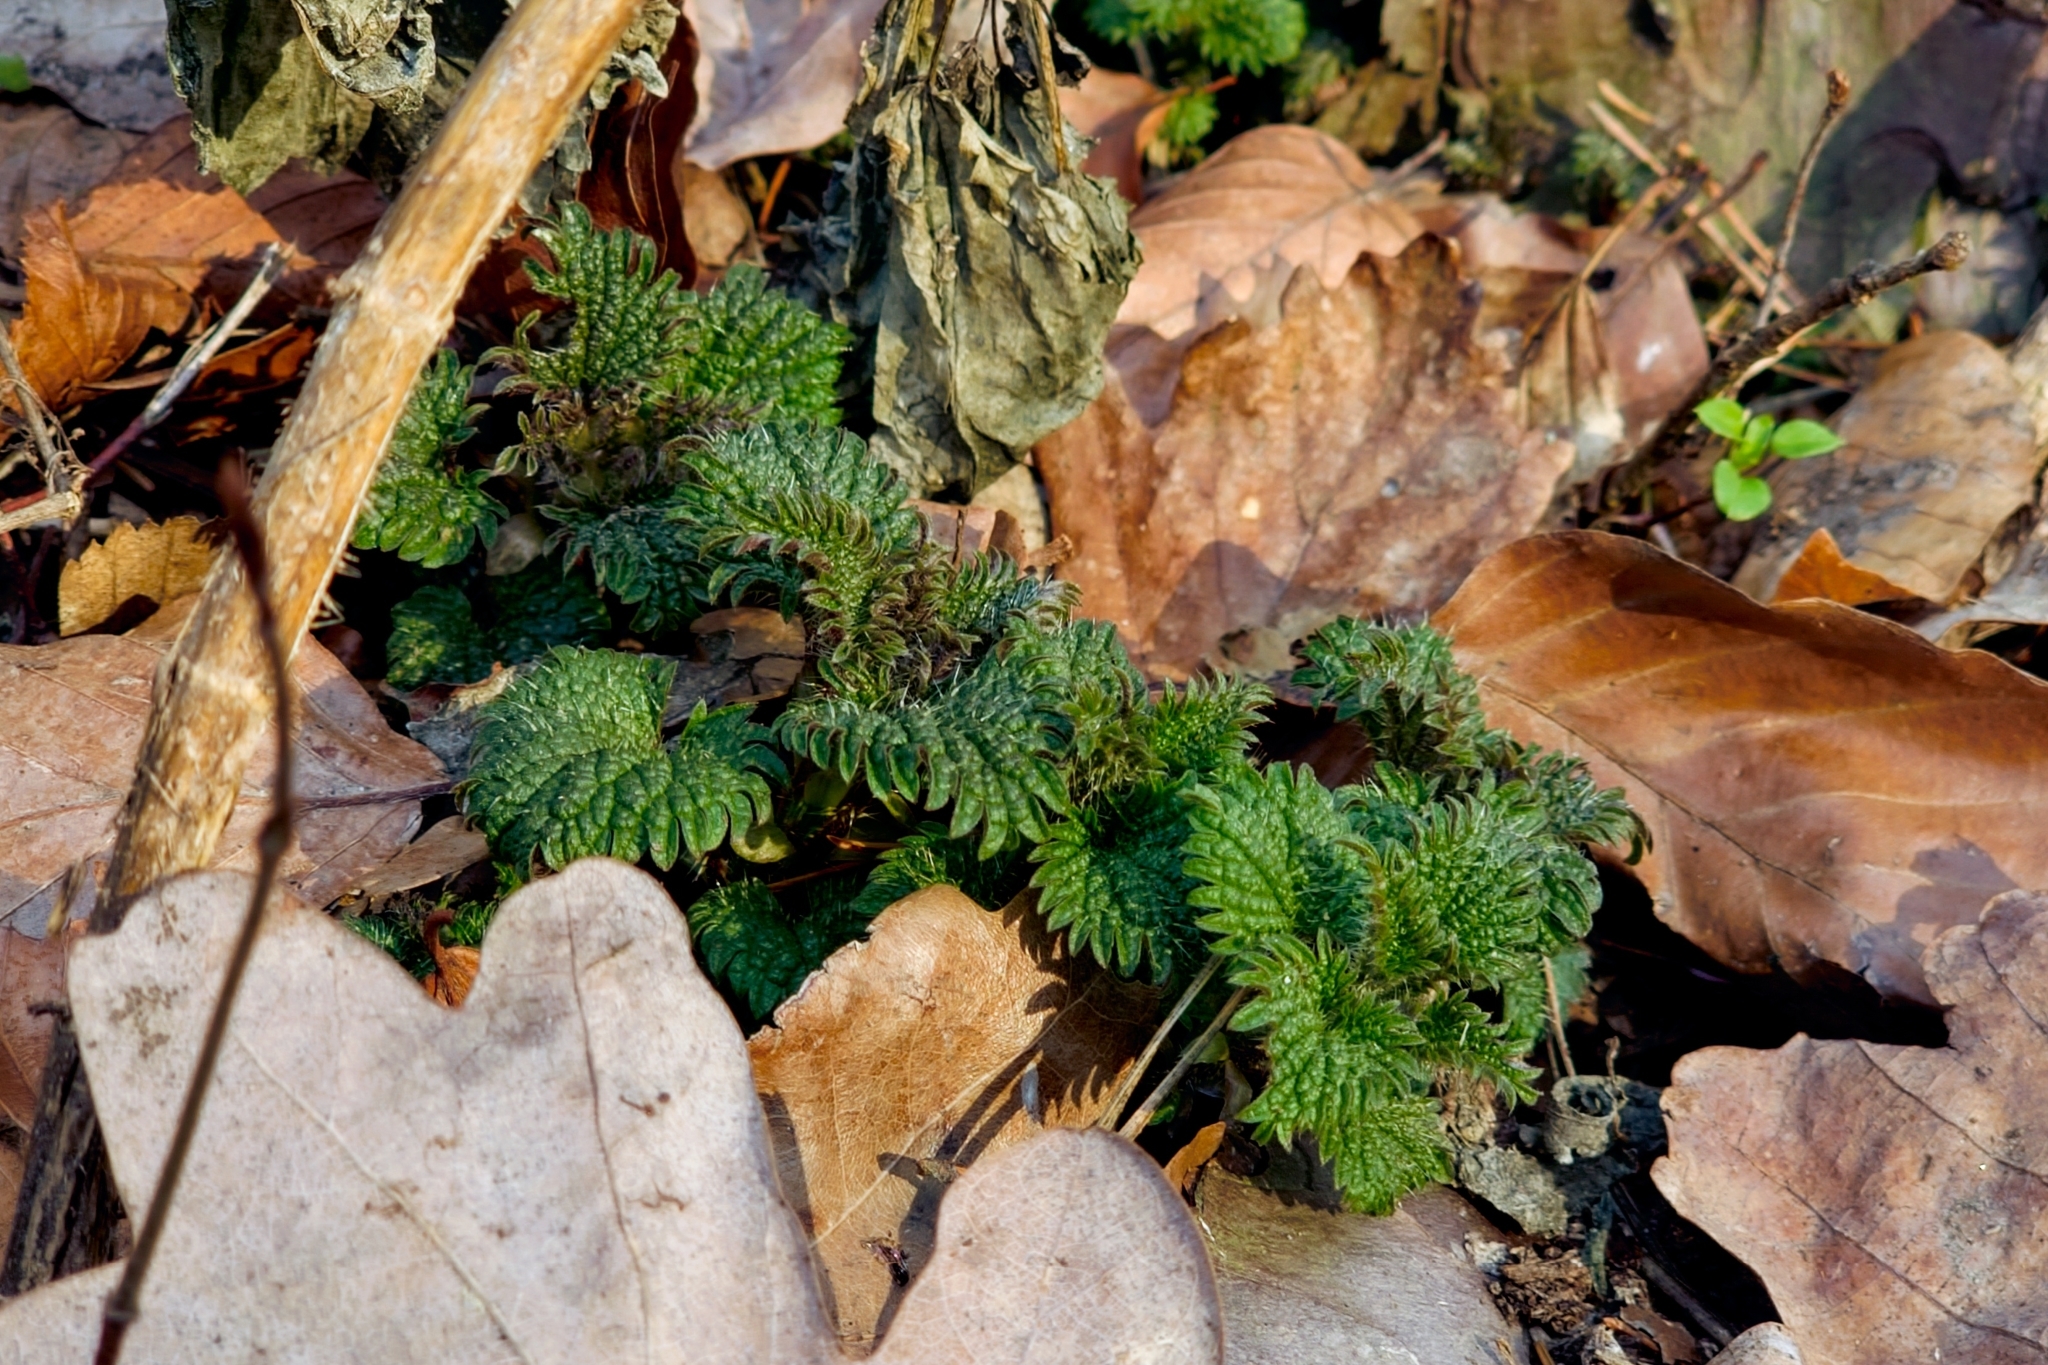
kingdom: Plantae
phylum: Tracheophyta
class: Magnoliopsida
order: Rosales
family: Urticaceae
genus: Urtica
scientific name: Urtica dioica
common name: Common nettle
